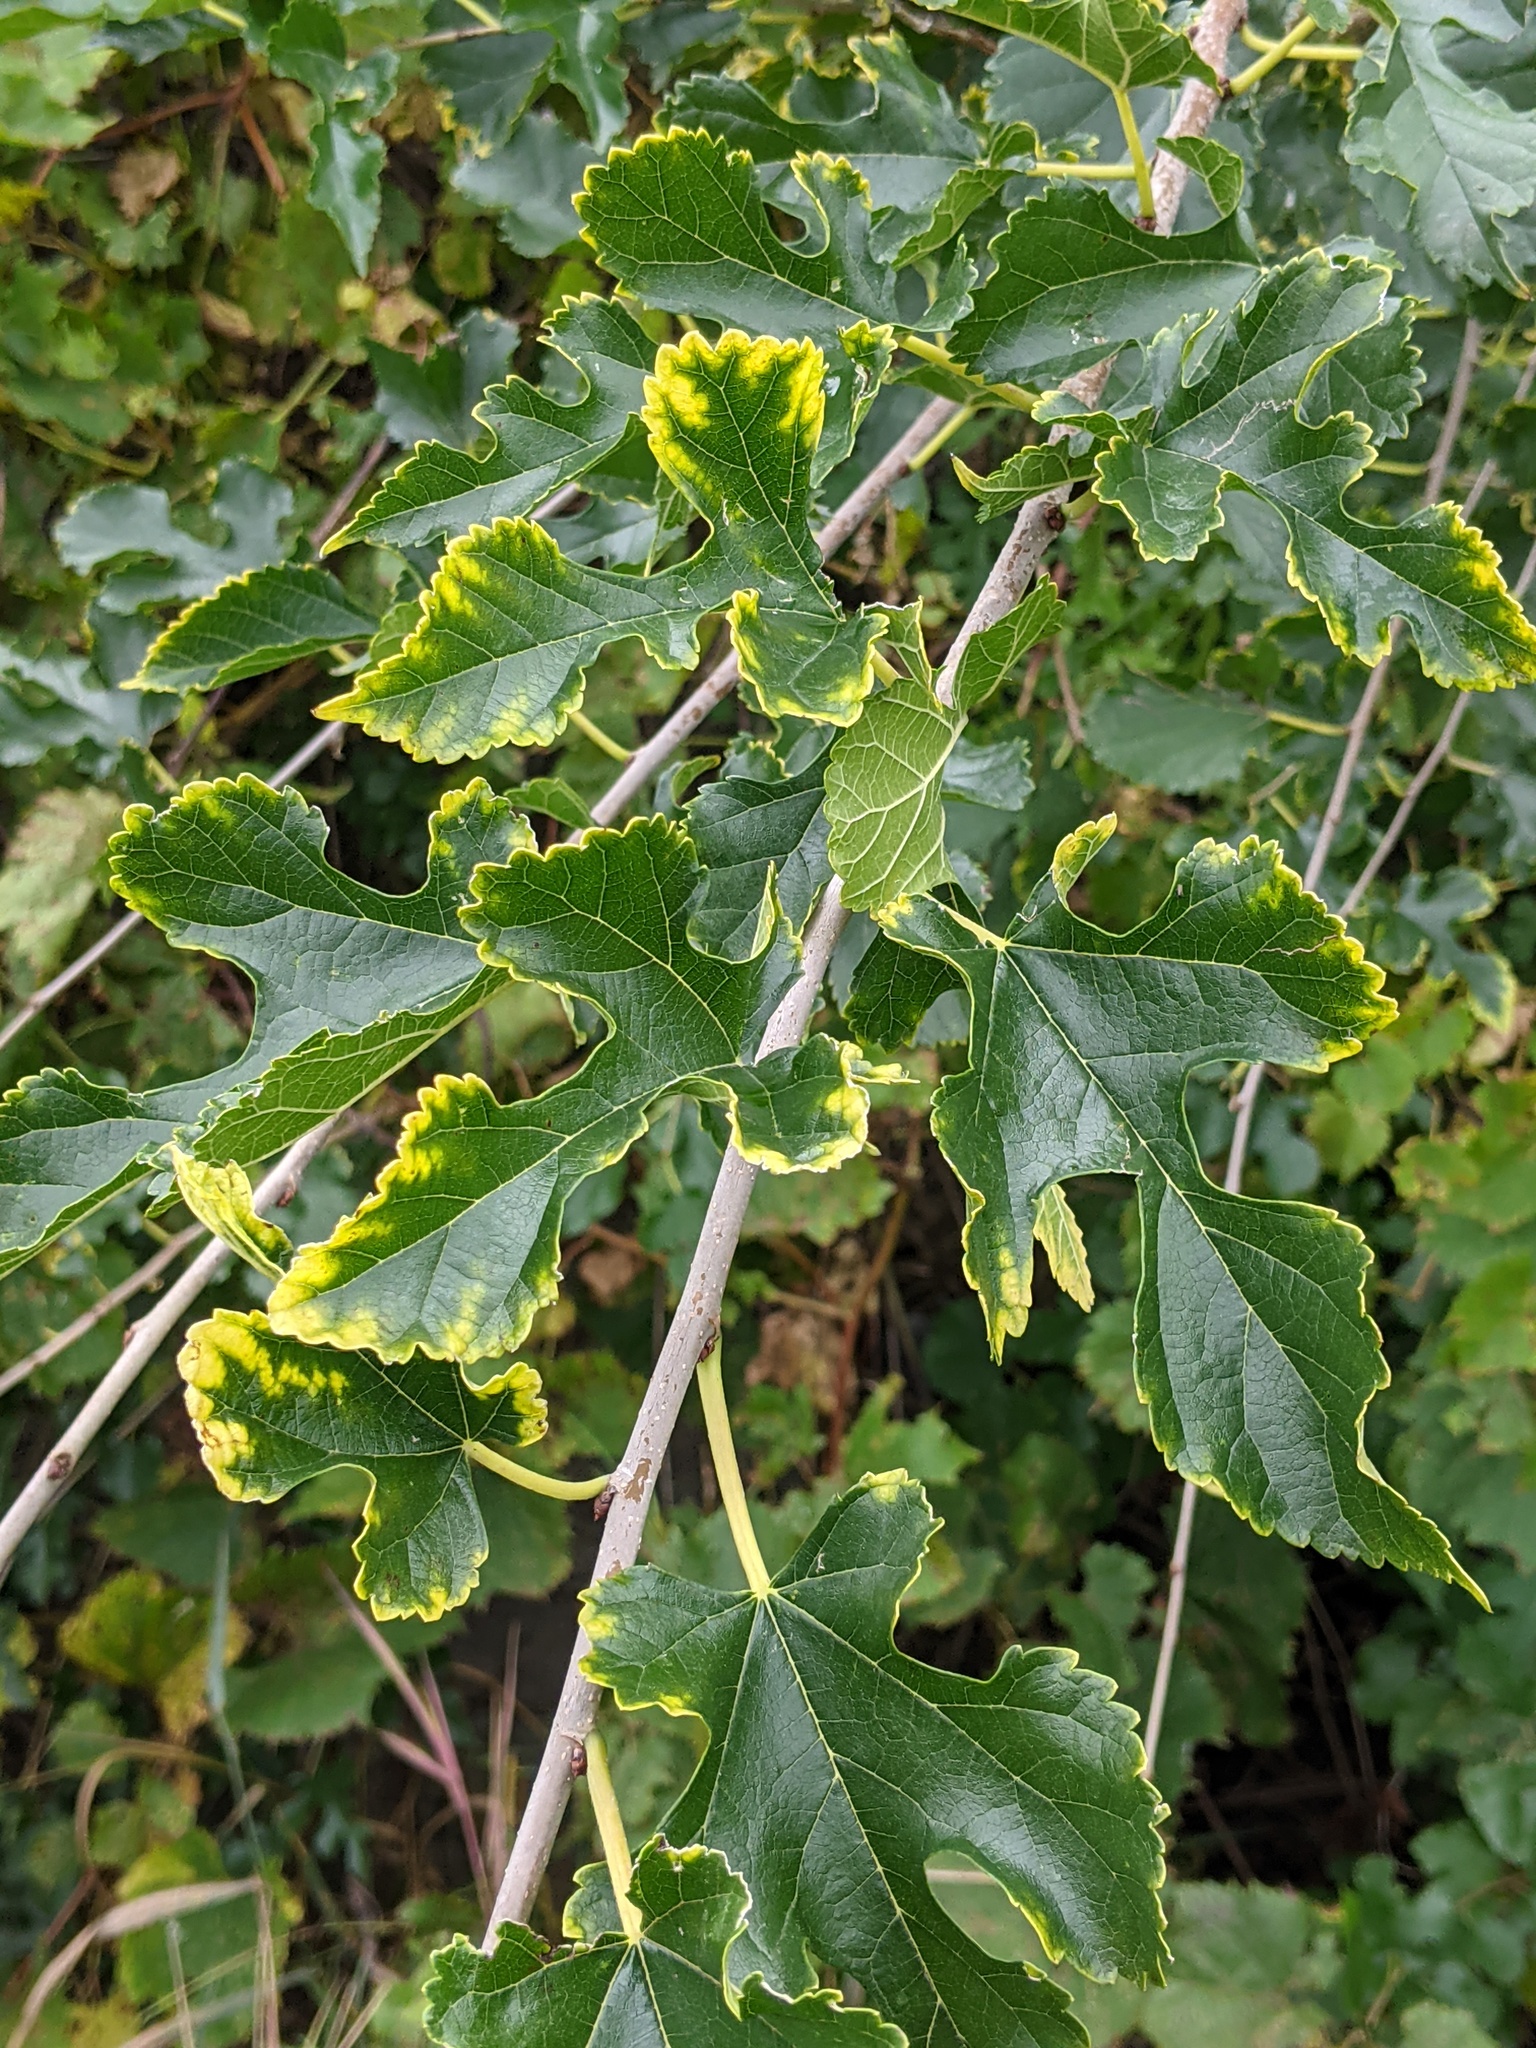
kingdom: Plantae
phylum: Tracheophyta
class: Magnoliopsida
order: Rosales
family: Moraceae
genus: Morus
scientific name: Morus alba
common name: White mulberry
